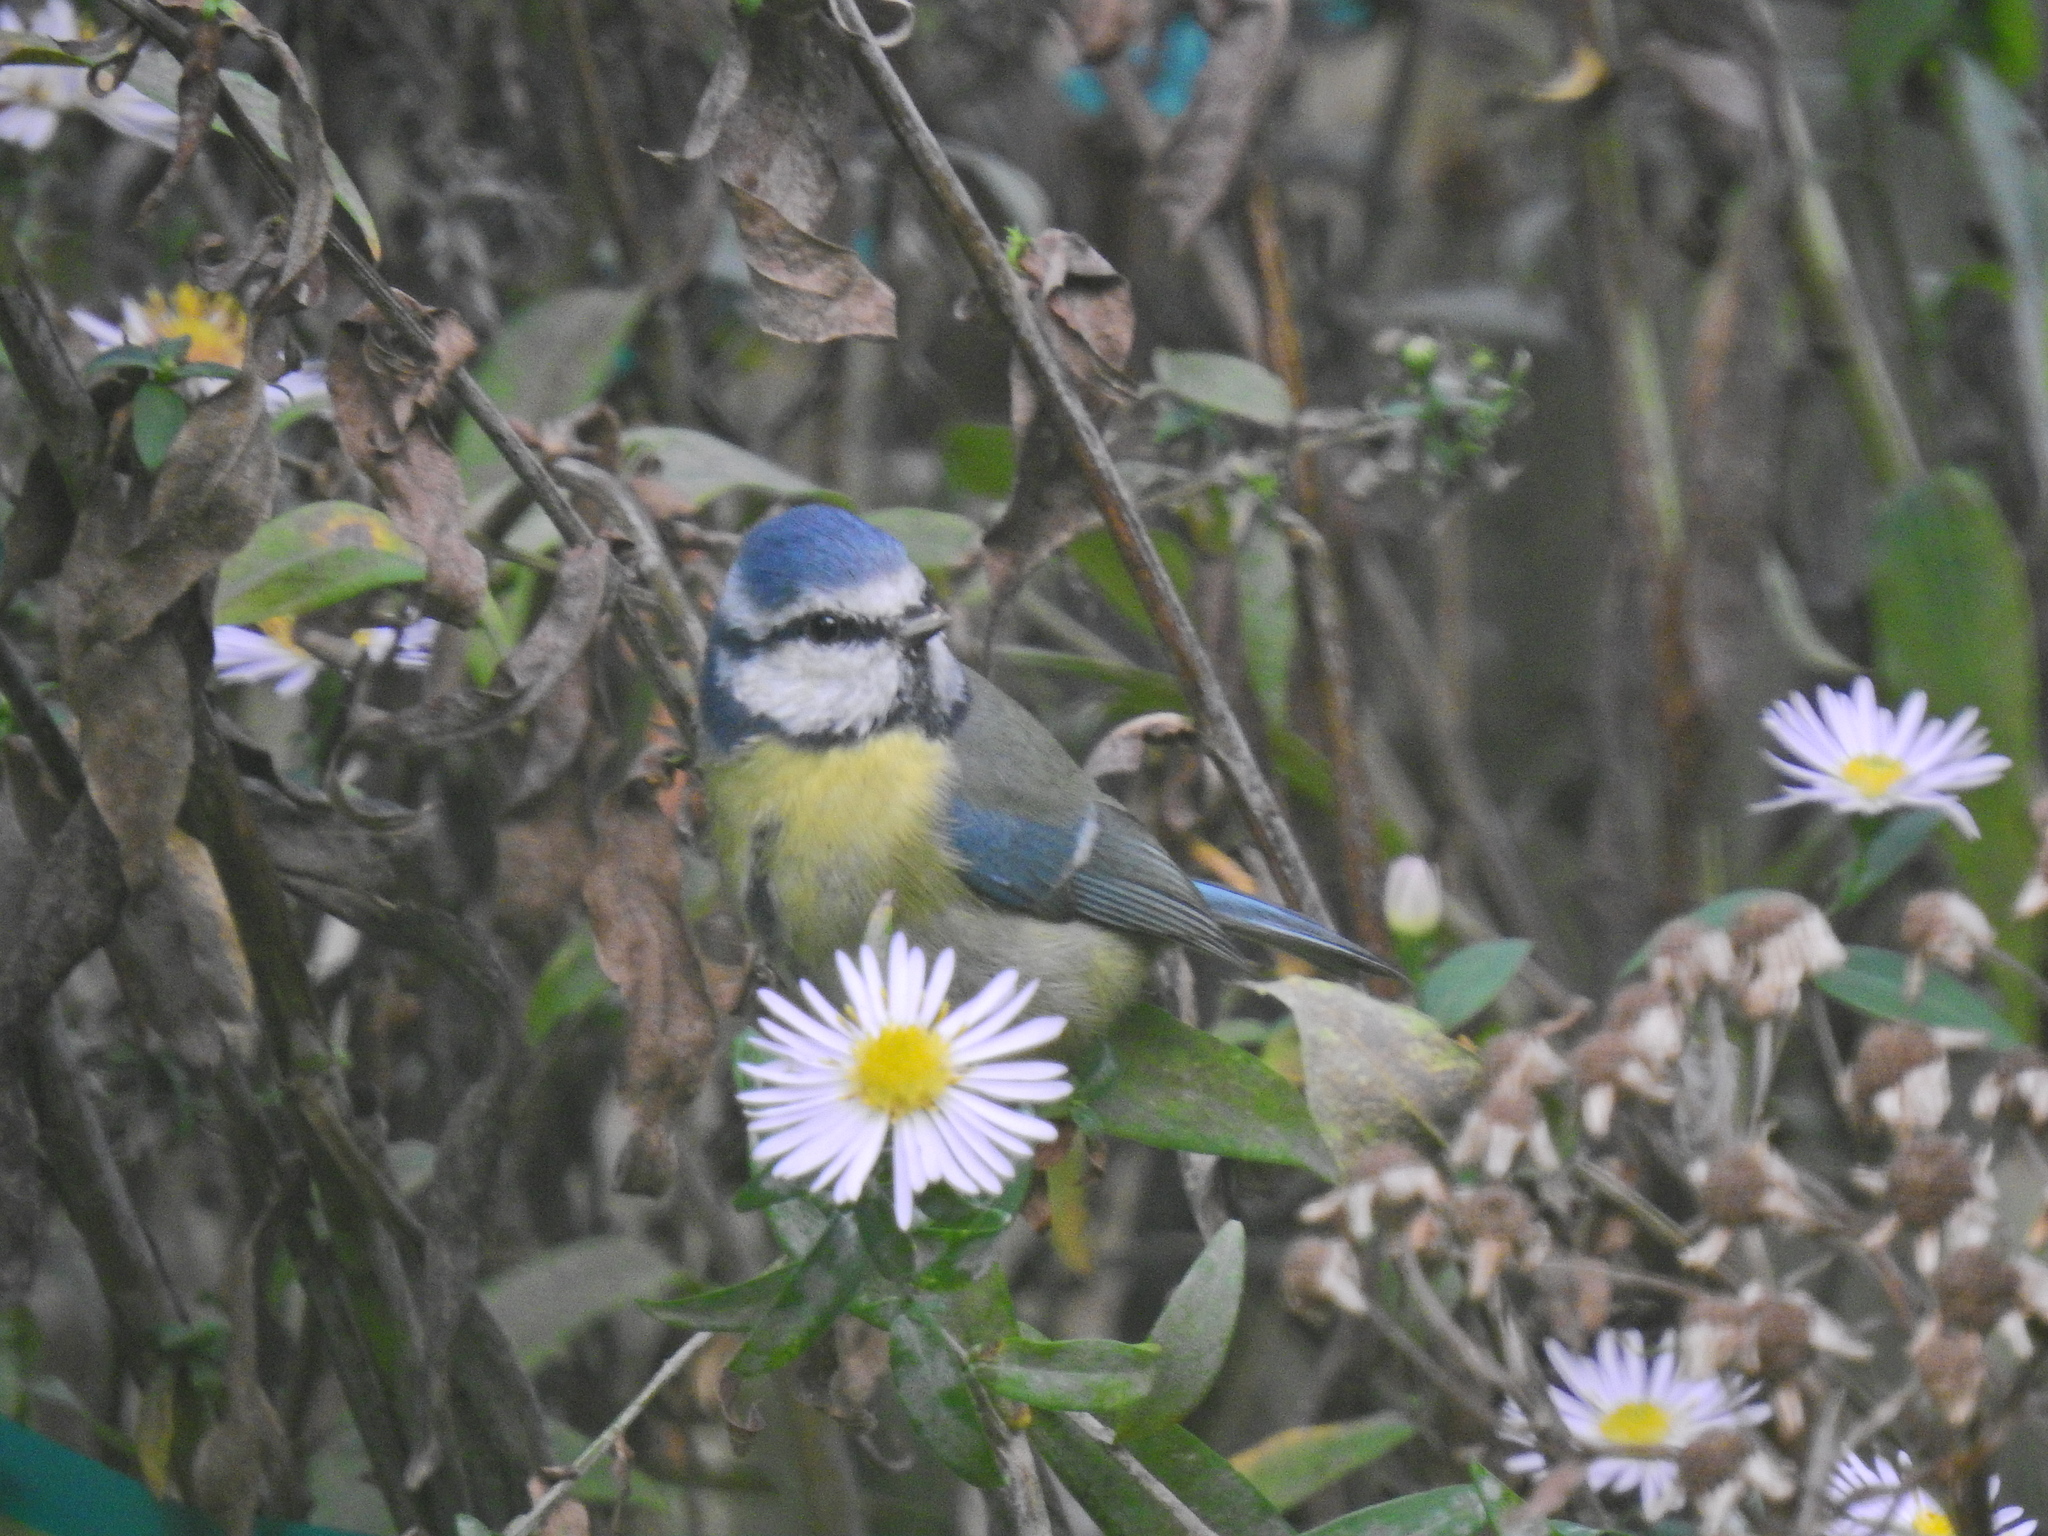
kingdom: Animalia
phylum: Chordata
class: Aves
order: Passeriformes
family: Paridae
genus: Cyanistes
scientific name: Cyanistes caeruleus
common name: Eurasian blue tit
